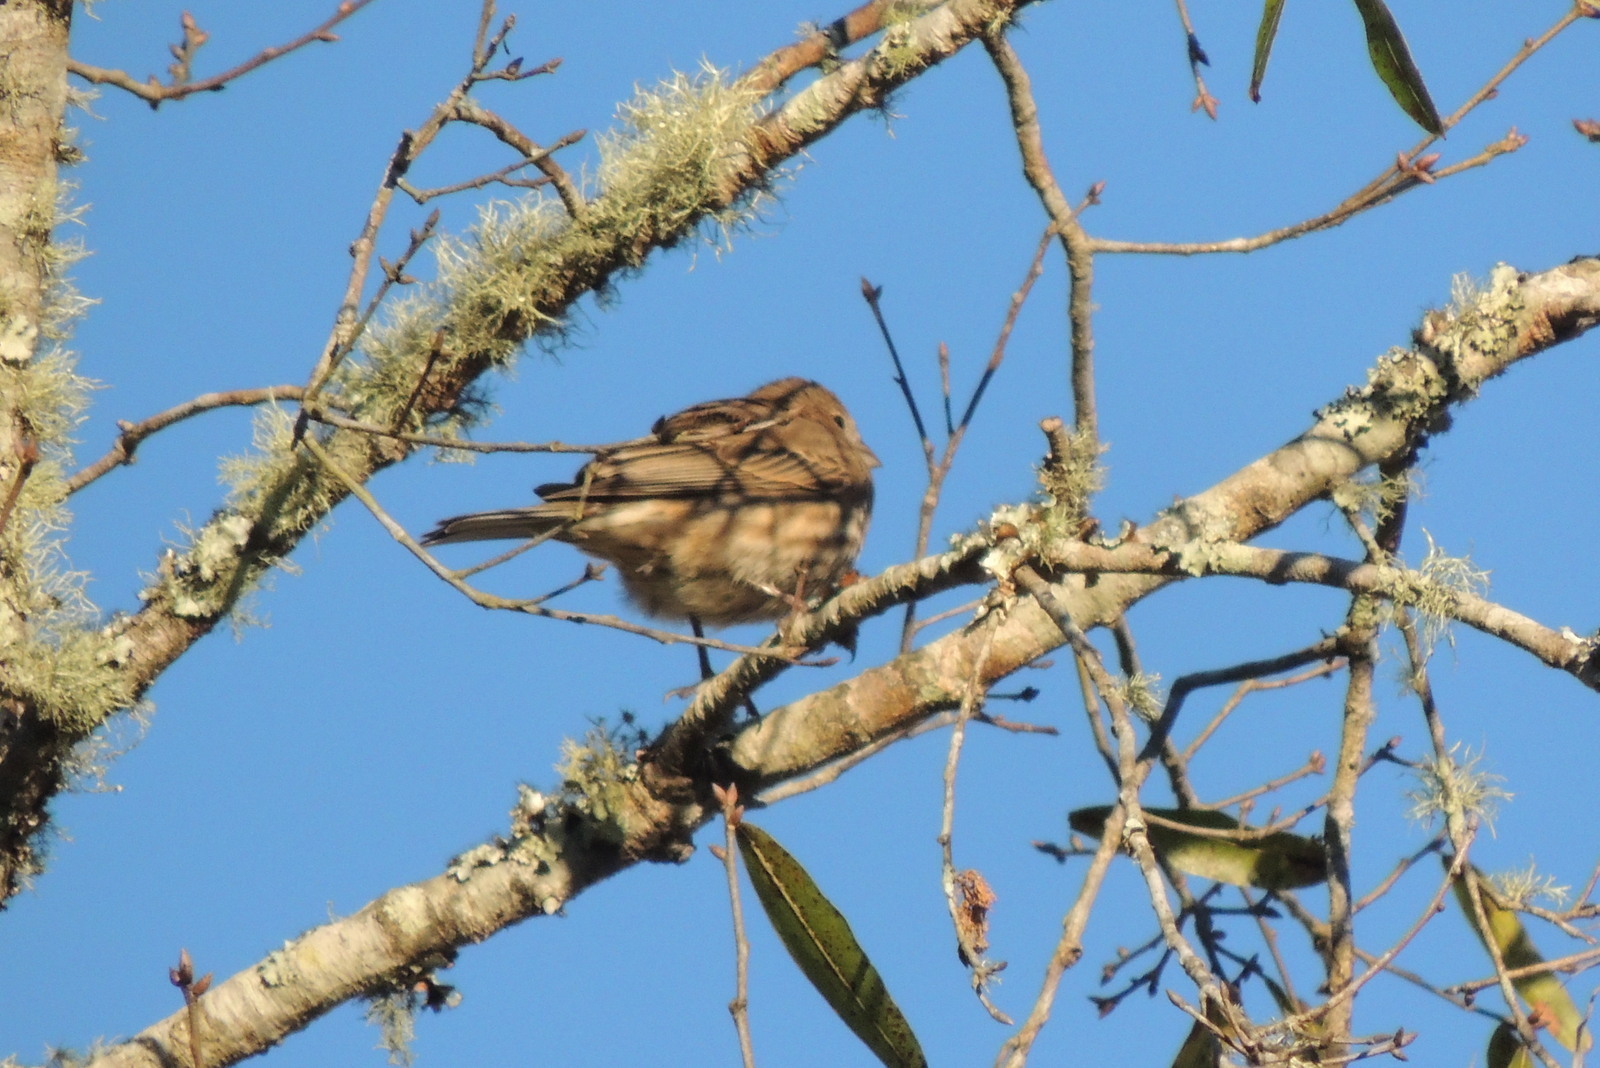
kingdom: Animalia
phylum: Chordata
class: Aves
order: Passeriformes
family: Fringillidae
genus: Haemorhous
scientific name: Haemorhous mexicanus
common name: House finch
